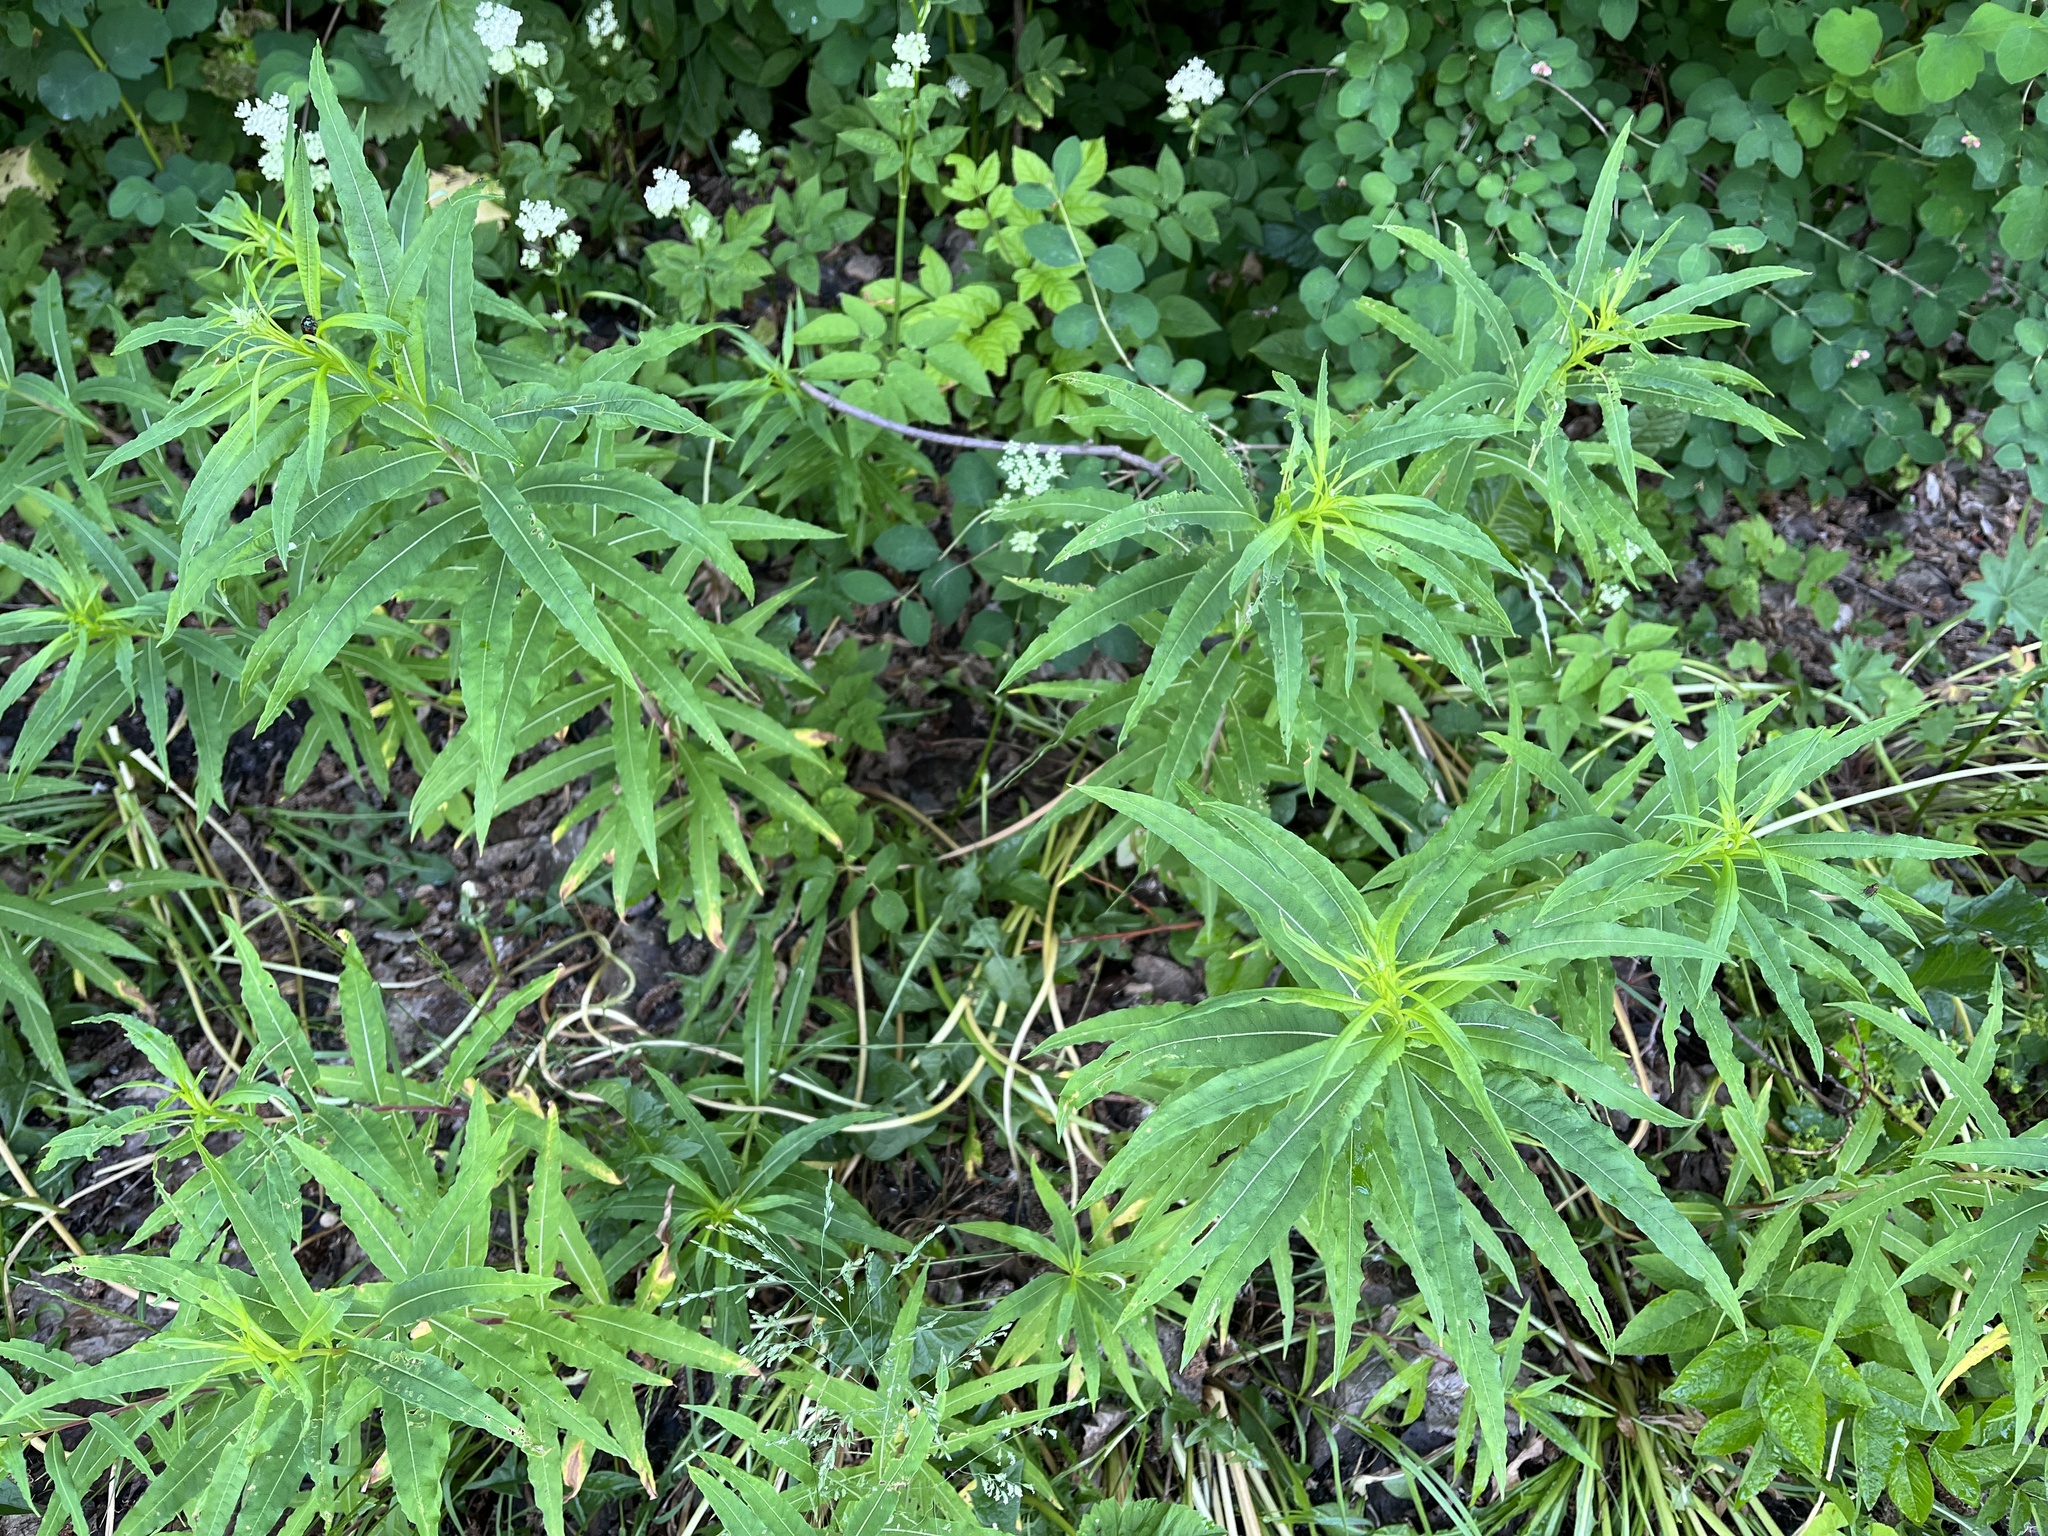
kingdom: Plantae
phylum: Tracheophyta
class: Magnoliopsida
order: Myrtales
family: Onagraceae
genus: Chamaenerion
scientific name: Chamaenerion angustifolium
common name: Fireweed
